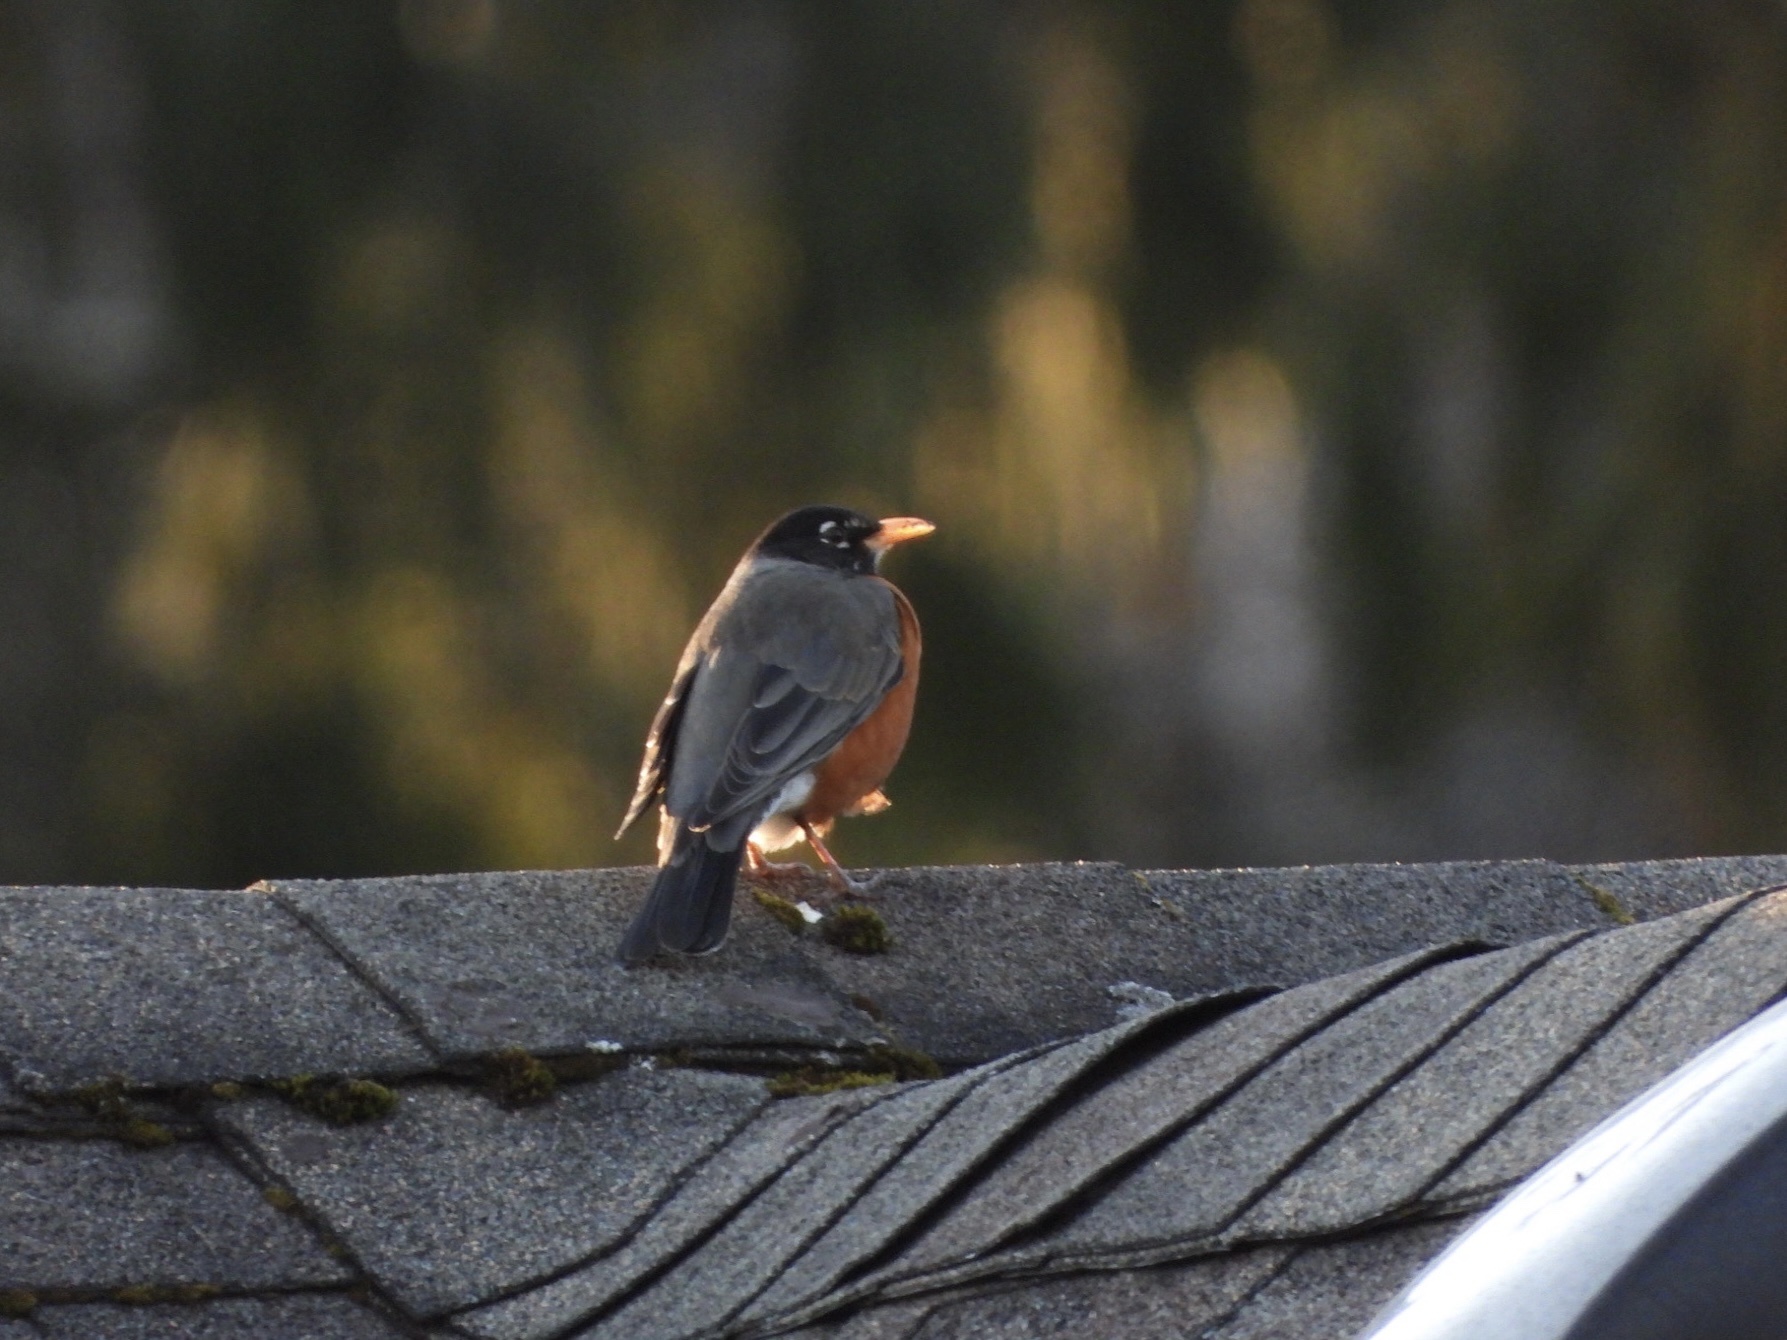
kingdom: Animalia
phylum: Chordata
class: Aves
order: Passeriformes
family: Turdidae
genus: Turdus
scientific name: Turdus migratorius
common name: American robin
